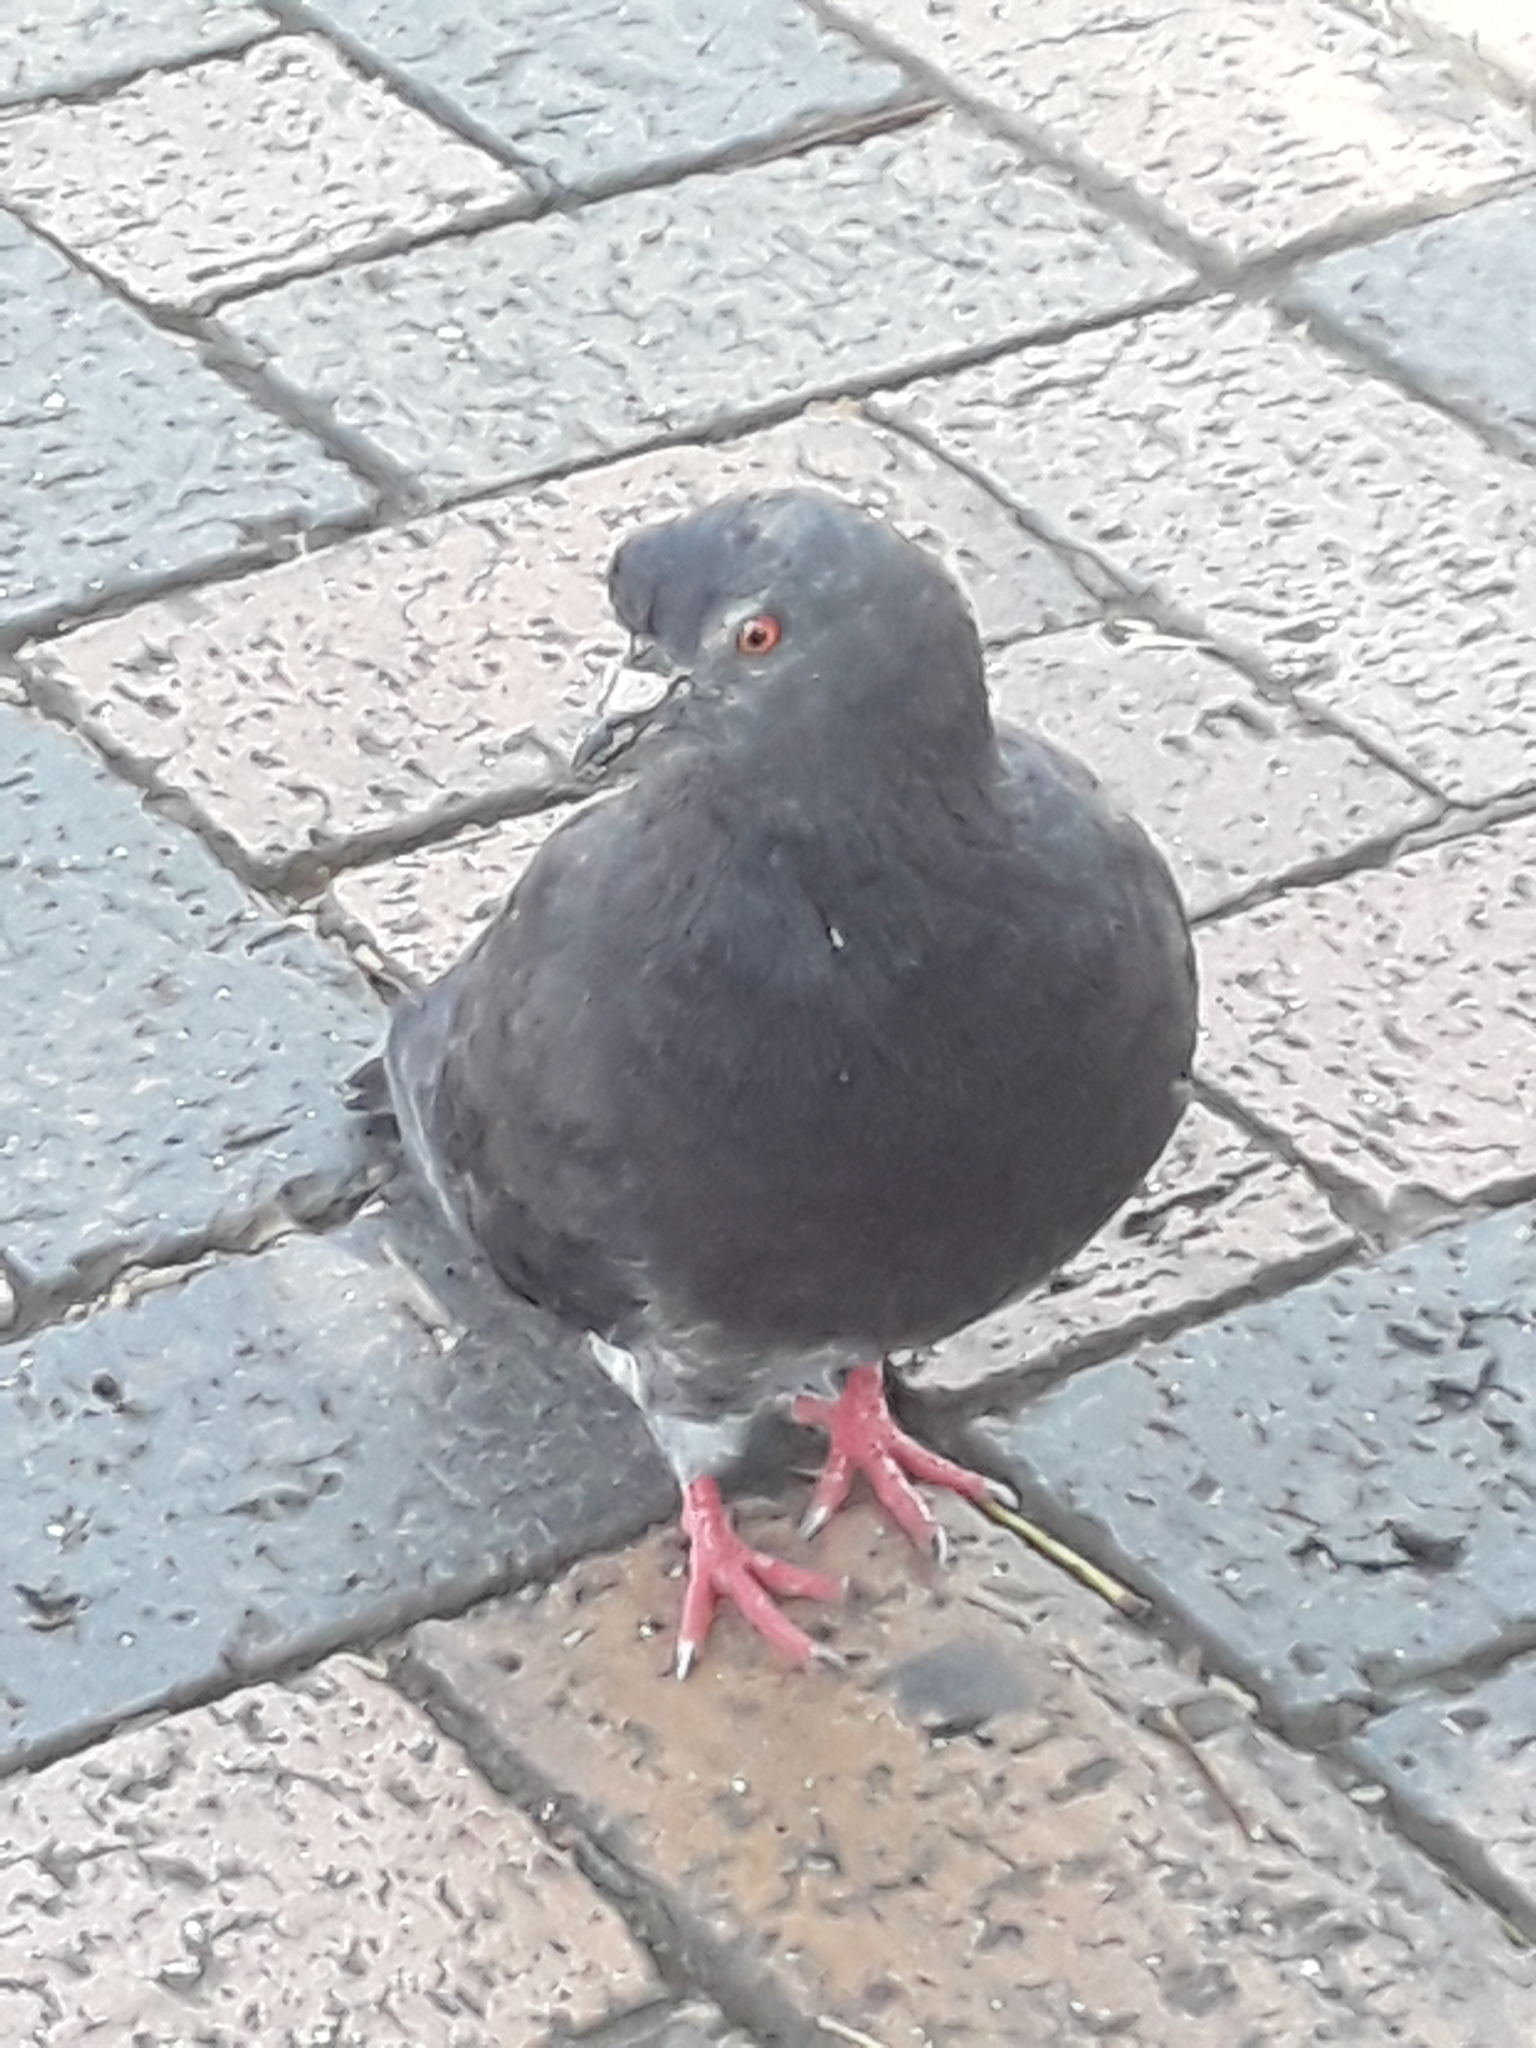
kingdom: Animalia
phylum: Chordata
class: Aves
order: Columbiformes
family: Columbidae
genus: Columba
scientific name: Columba livia
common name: Rock pigeon
